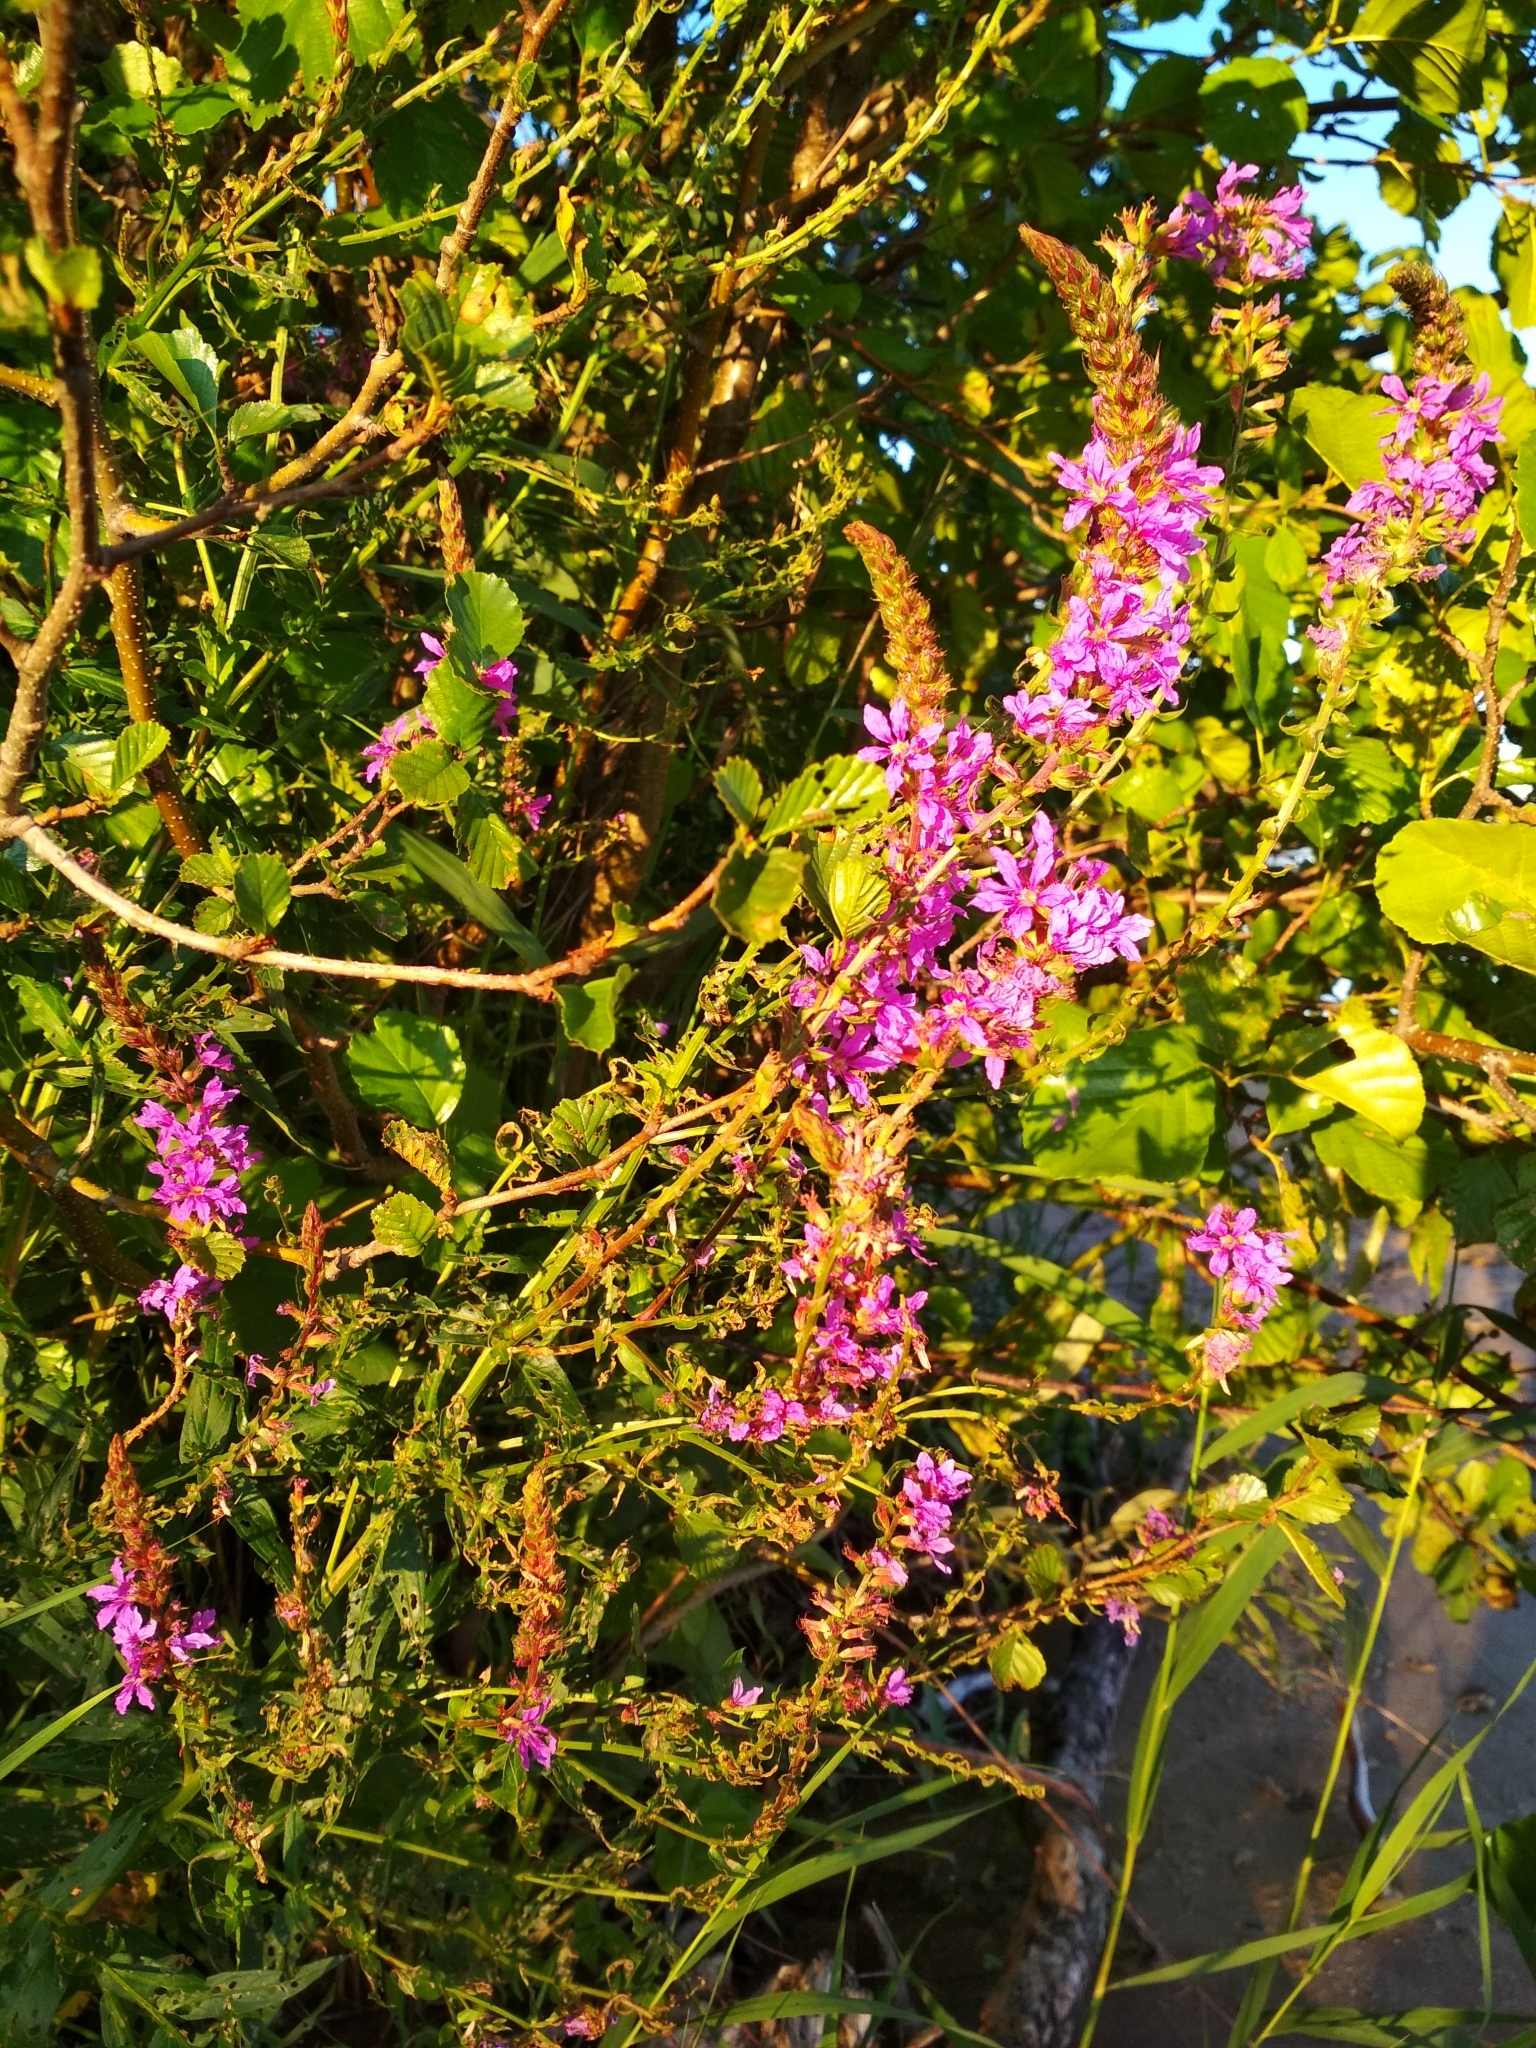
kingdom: Plantae
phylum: Tracheophyta
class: Magnoliopsida
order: Myrtales
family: Lythraceae
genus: Lythrum
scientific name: Lythrum salicaria
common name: Purple loosestrife
